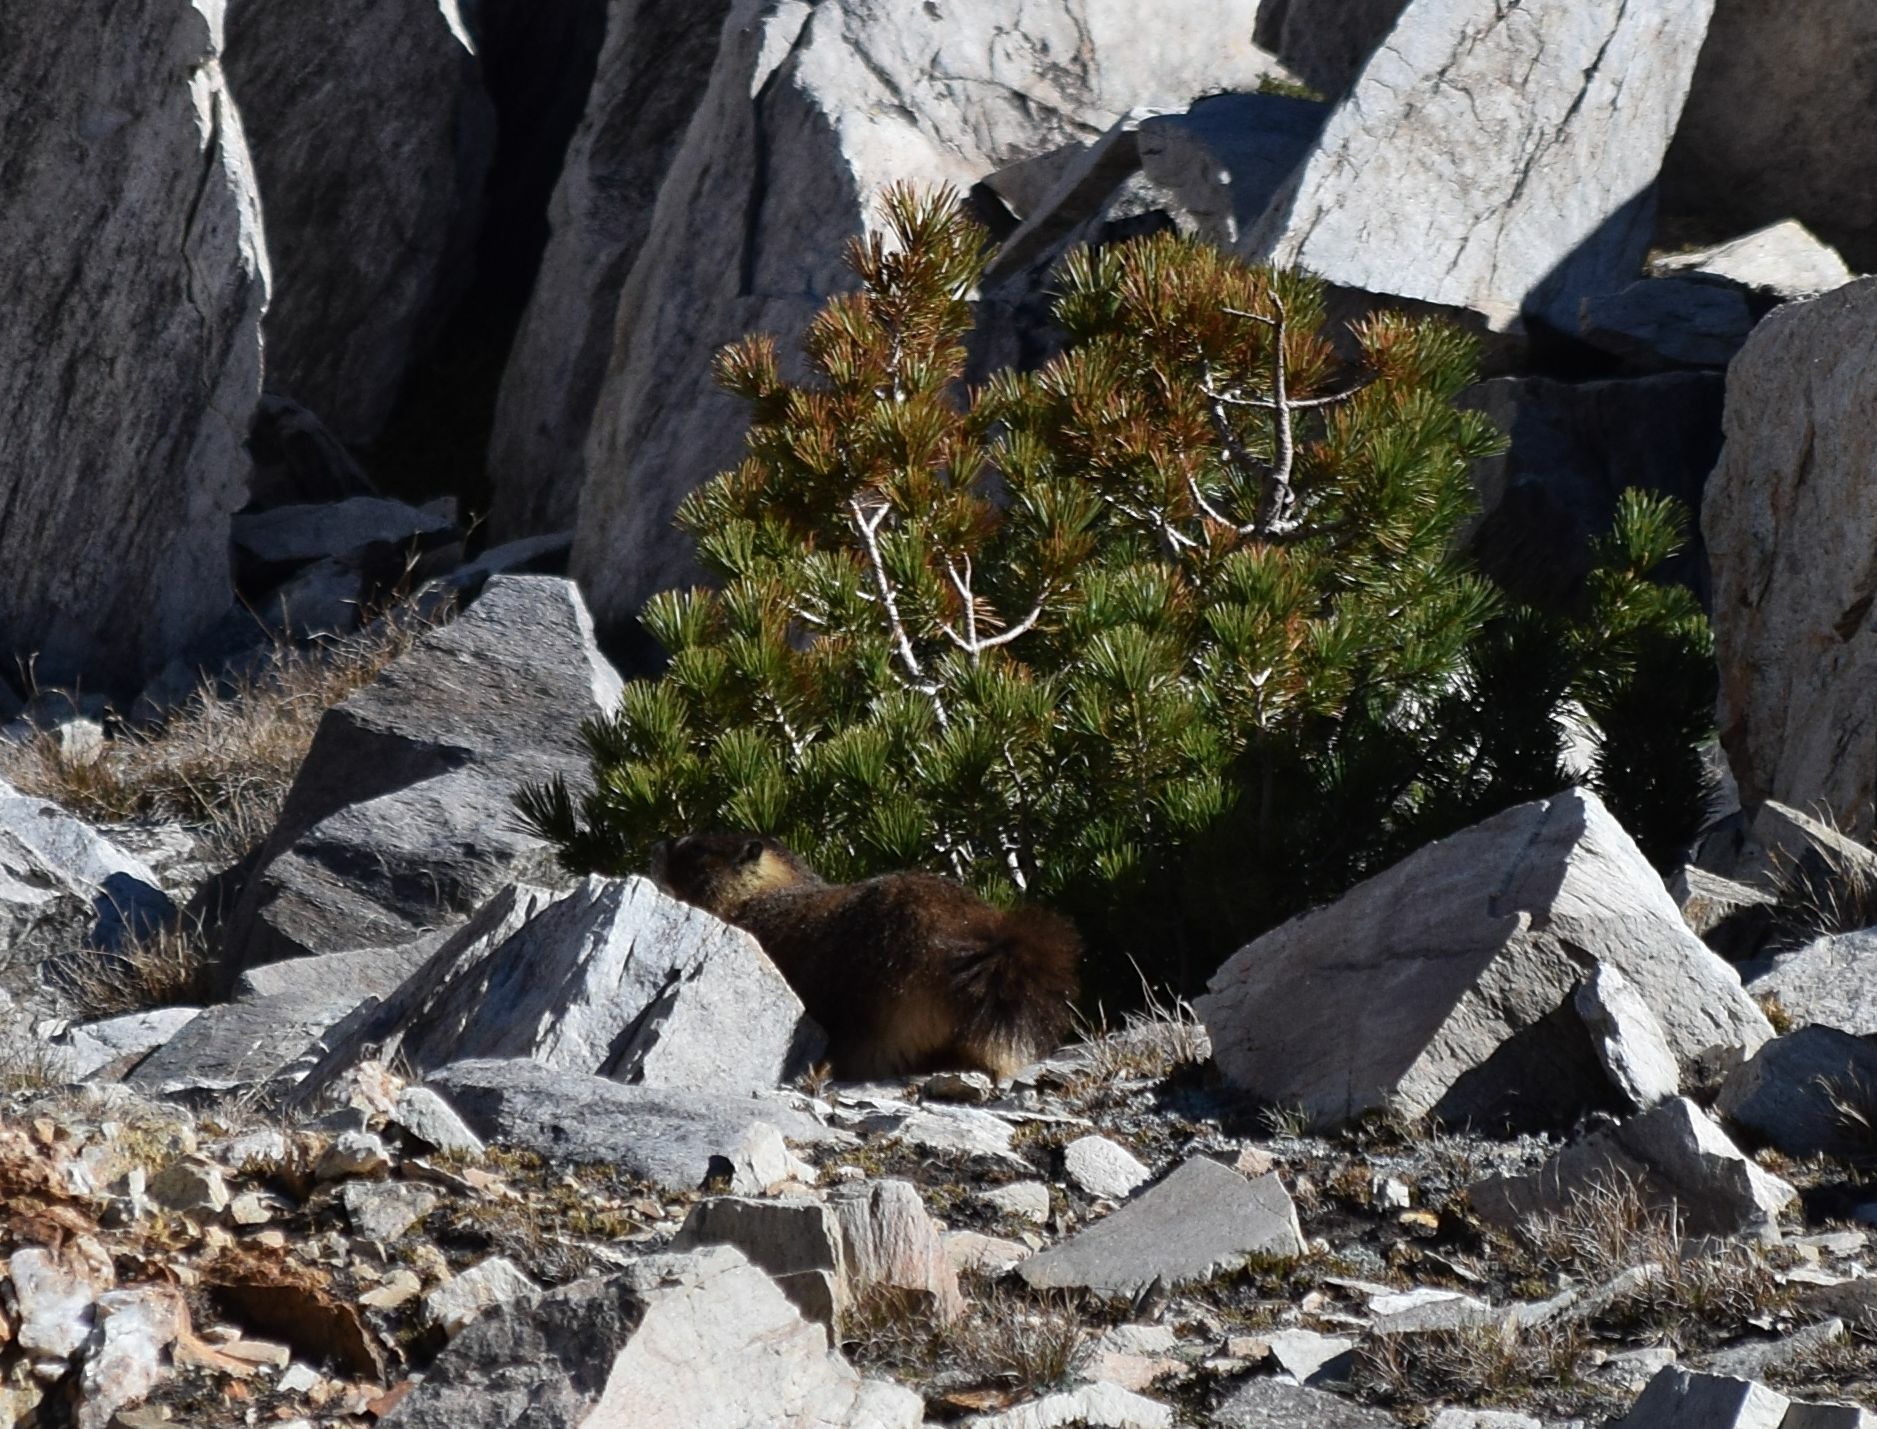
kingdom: Animalia
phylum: Chordata
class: Mammalia
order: Rodentia
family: Sciuridae
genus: Marmota
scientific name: Marmota flaviventris
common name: Yellow-bellied marmot
